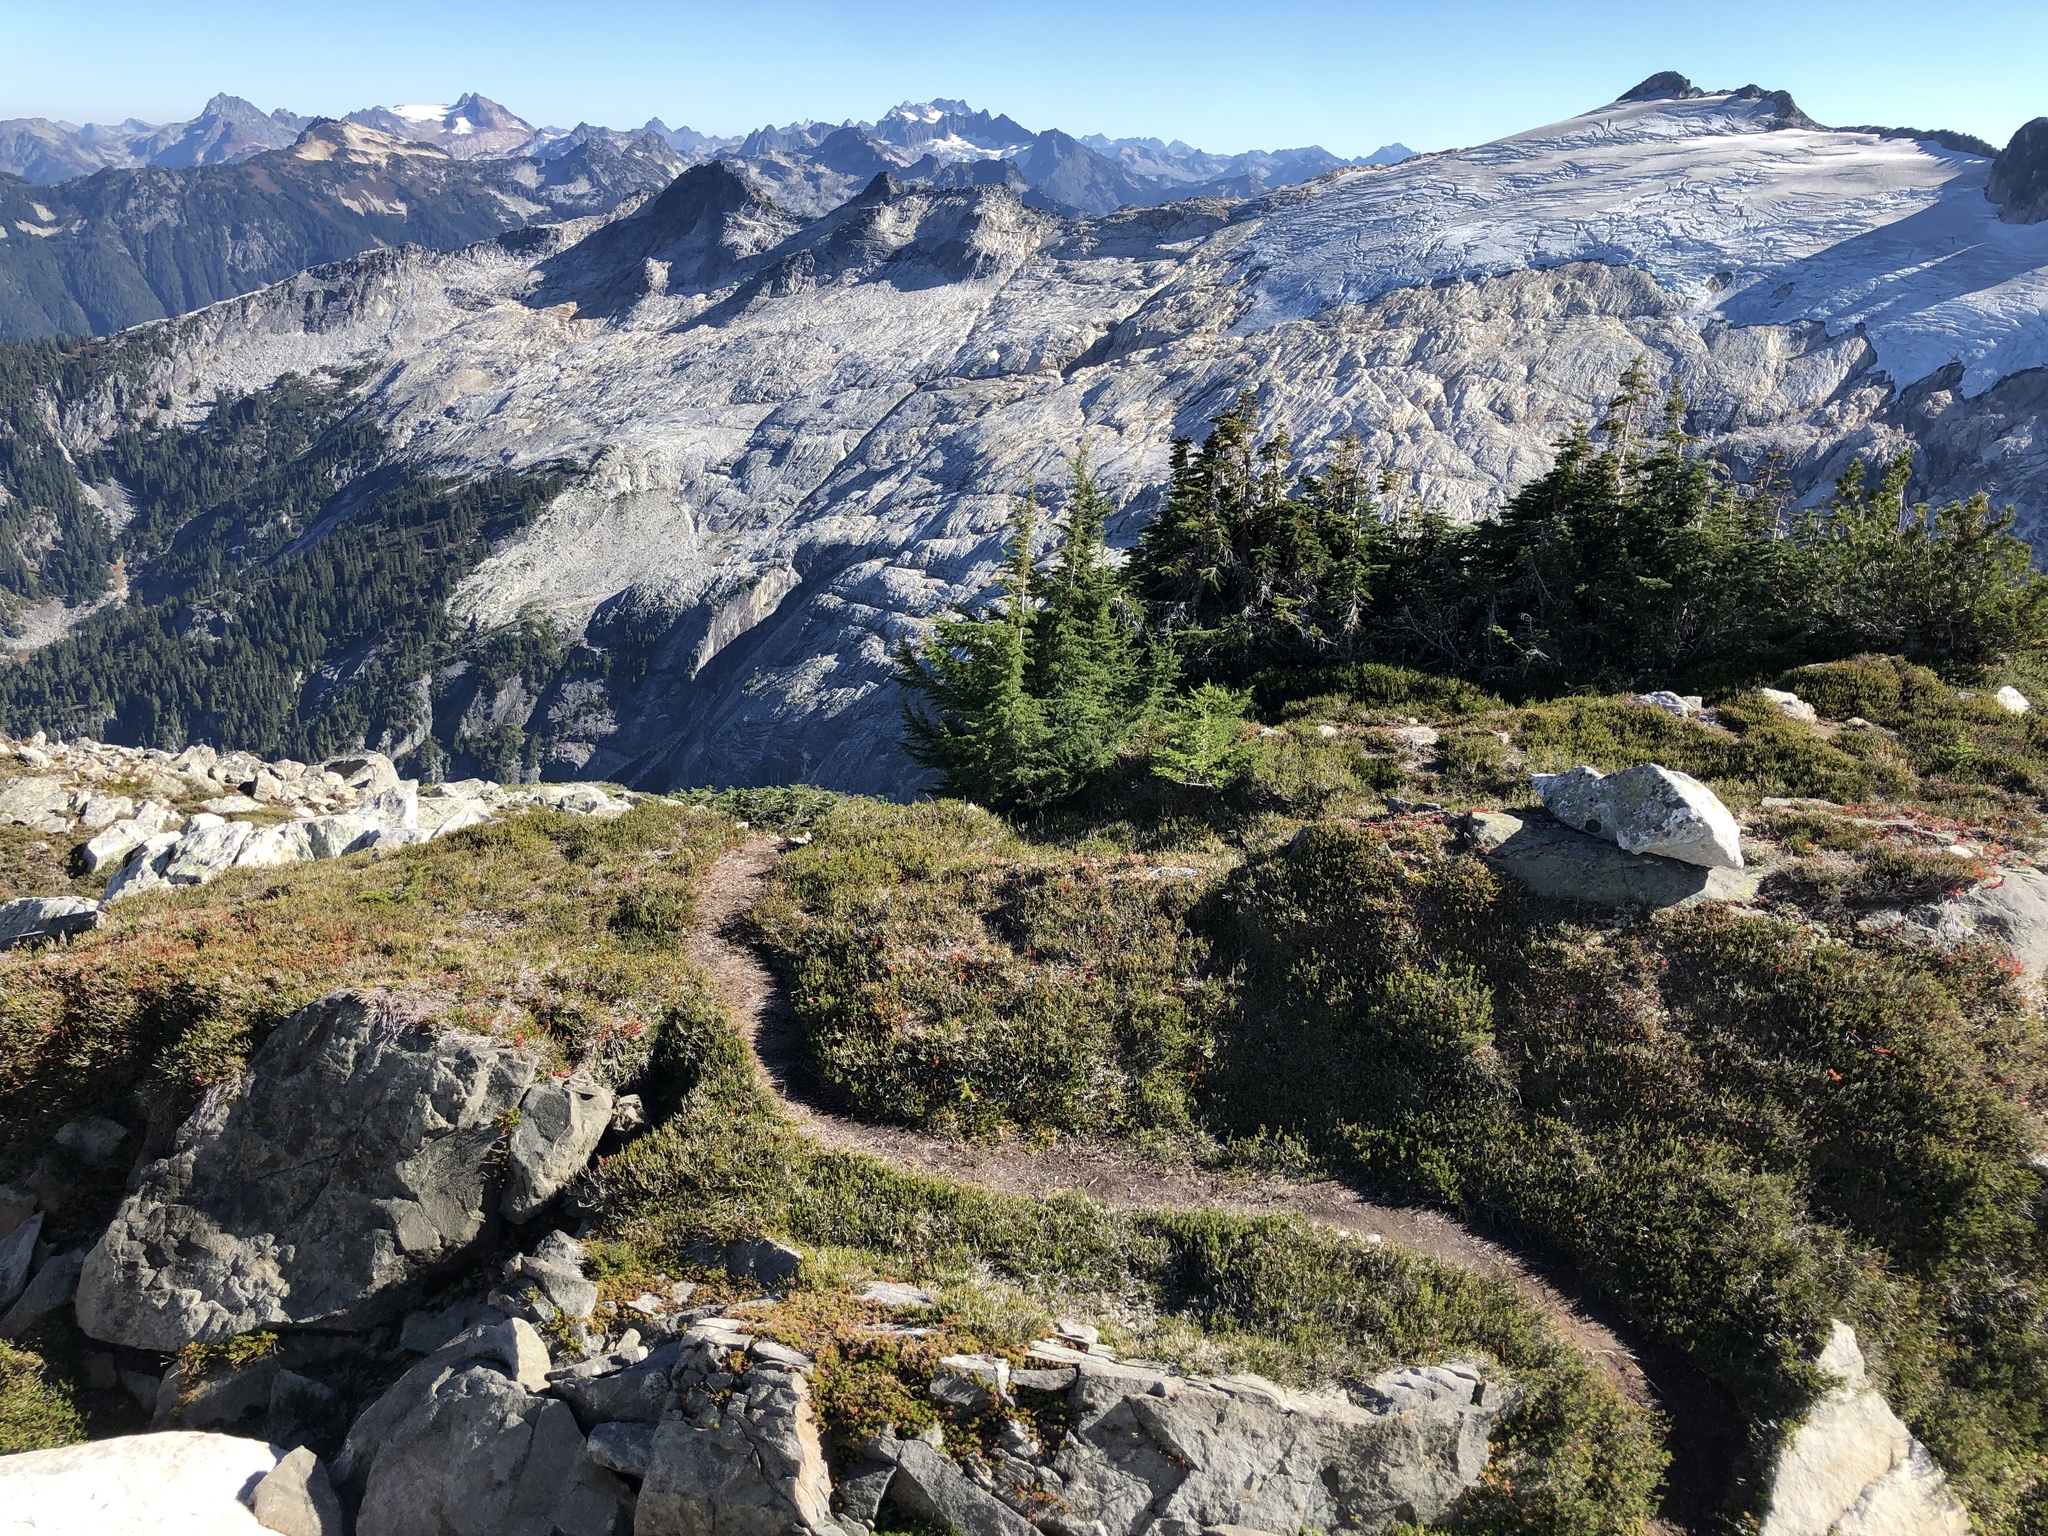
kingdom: Plantae
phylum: Tracheophyta
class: Pinopsida
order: Pinales
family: Pinaceae
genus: Pinus
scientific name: Pinus albicaulis
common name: Whitebark pine
